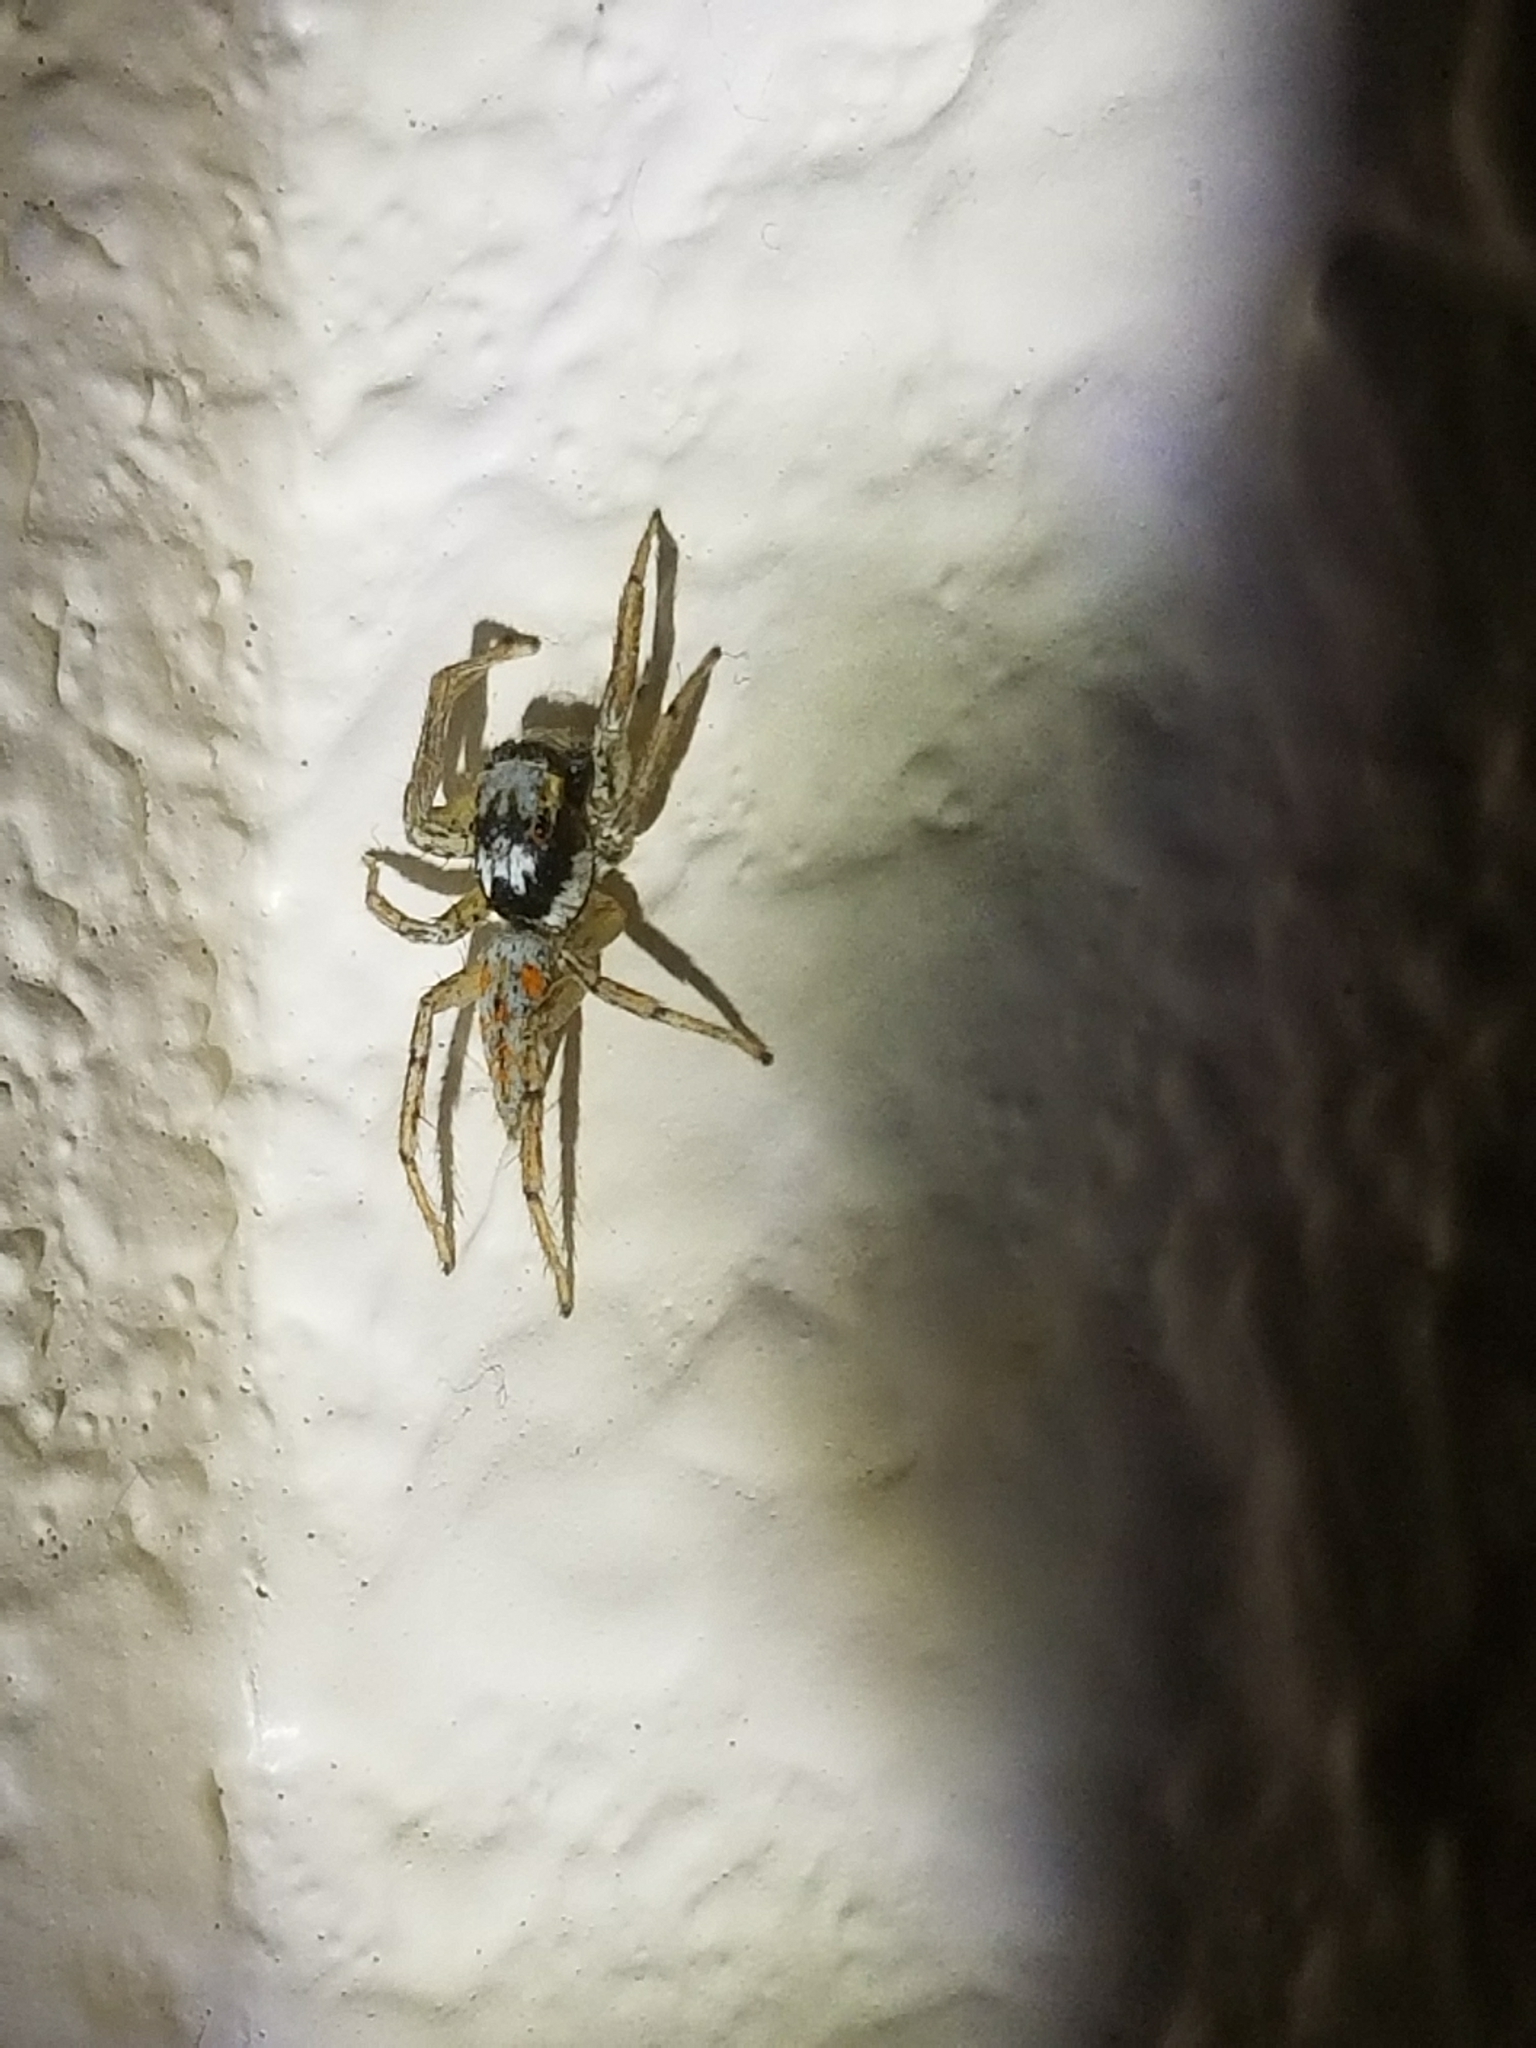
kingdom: Animalia
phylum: Arthropoda
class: Arachnida
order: Araneae
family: Salticidae
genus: Paramaevia
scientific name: Paramaevia poultoni
